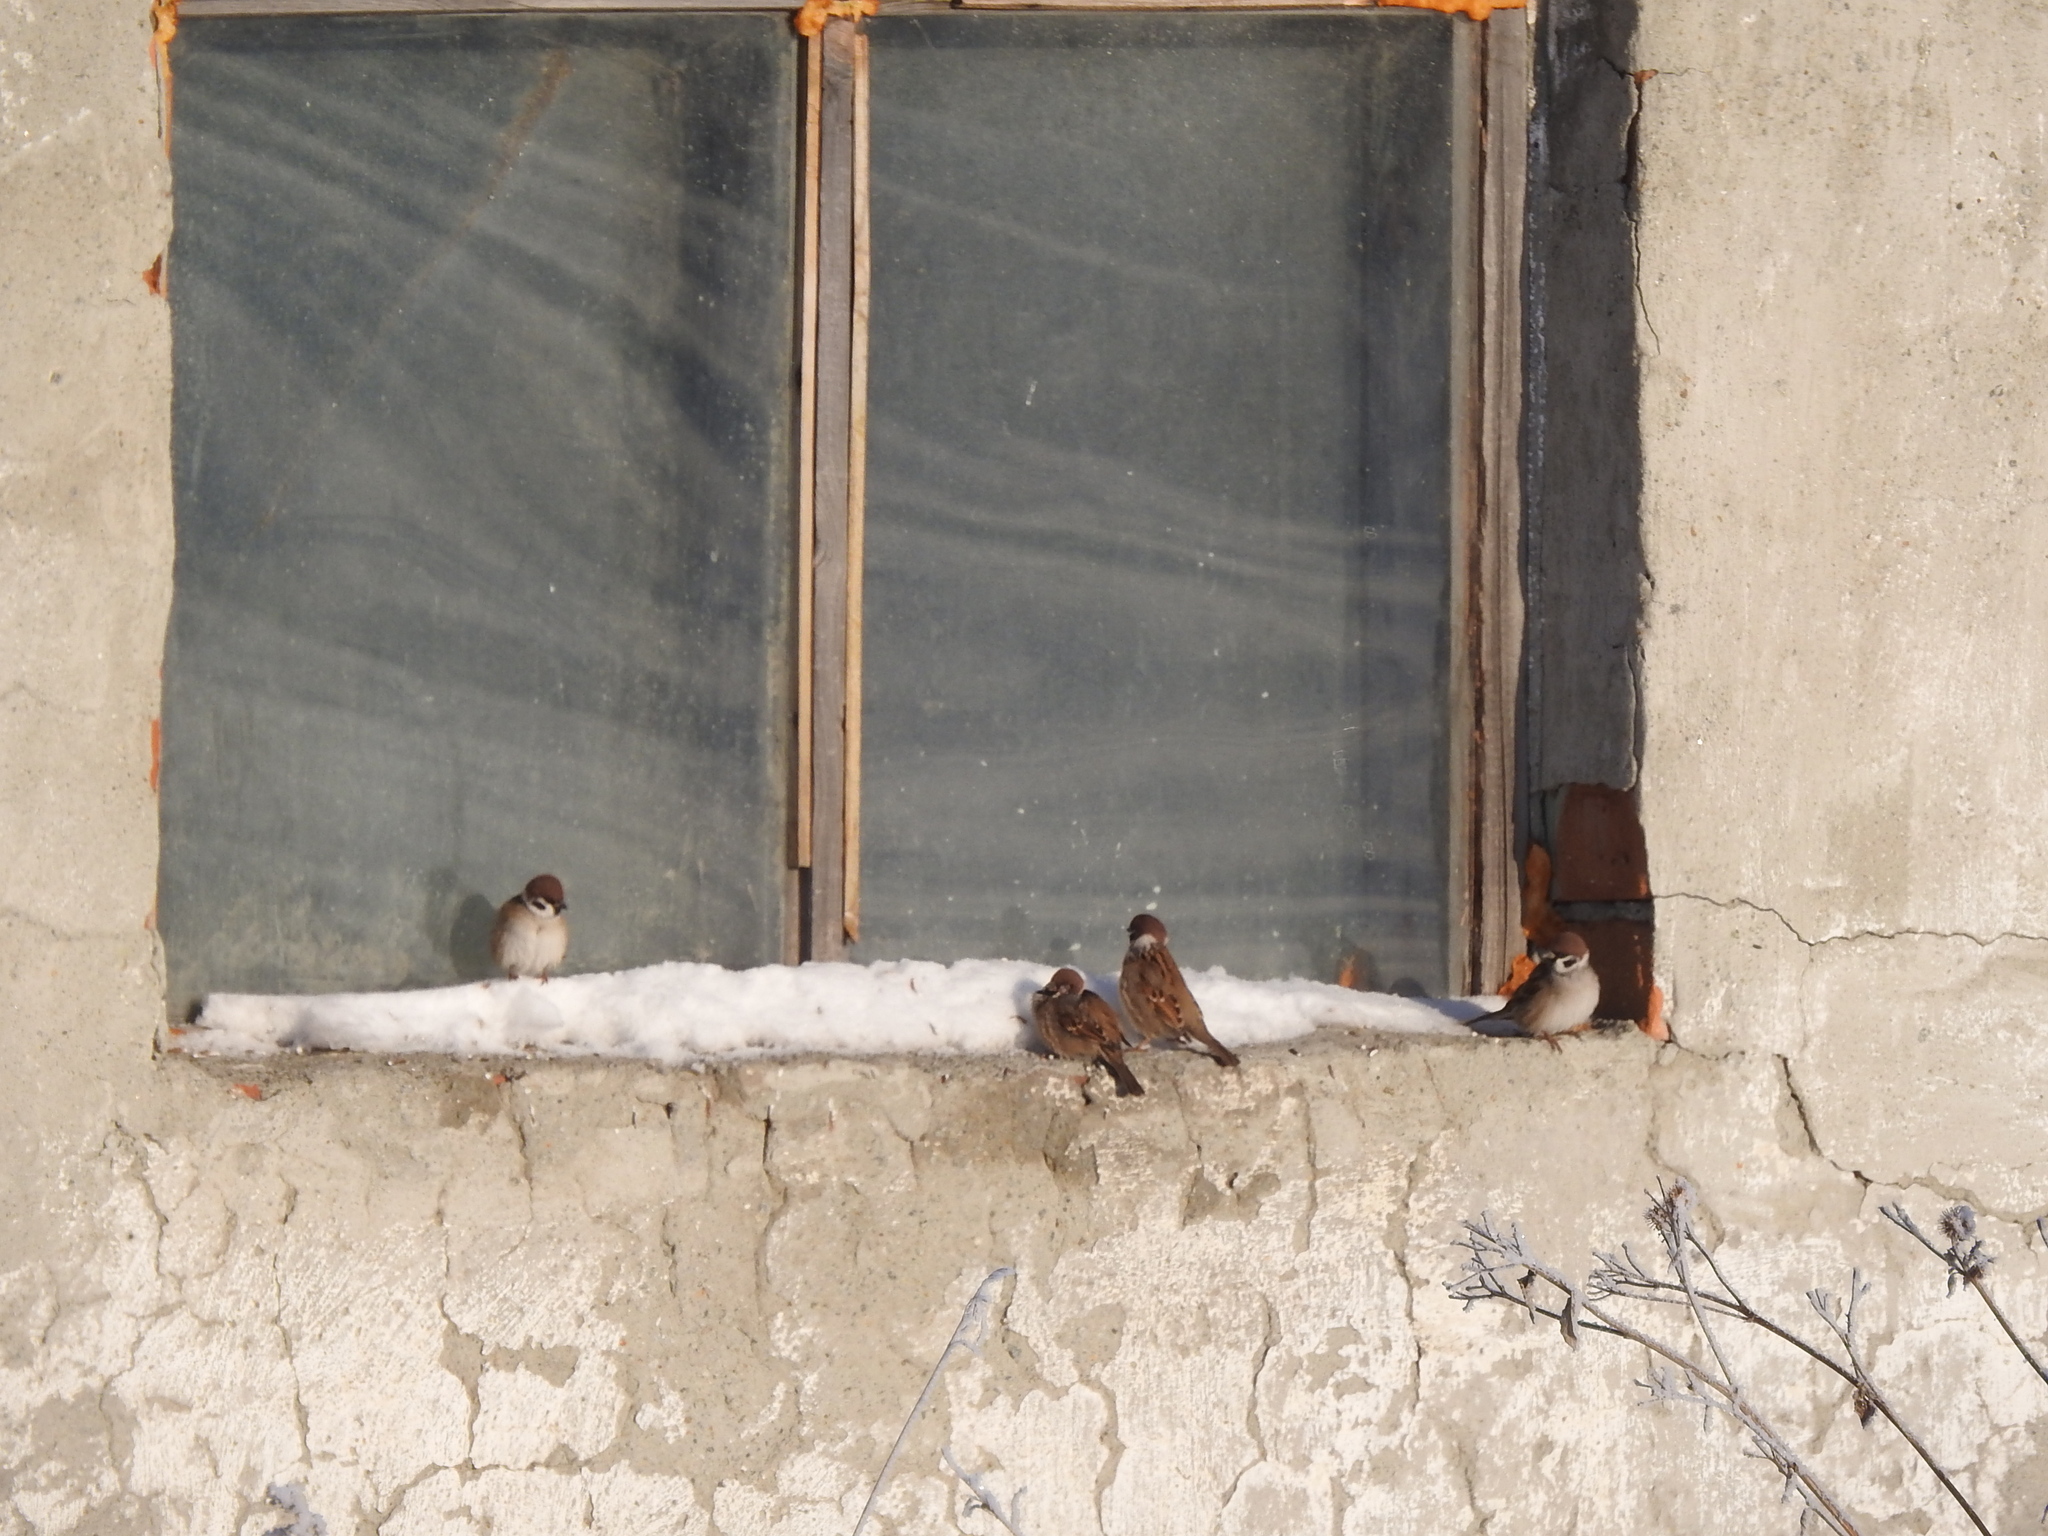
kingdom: Animalia
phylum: Chordata
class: Aves
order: Passeriformes
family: Passeridae
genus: Passer
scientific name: Passer montanus
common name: Eurasian tree sparrow
